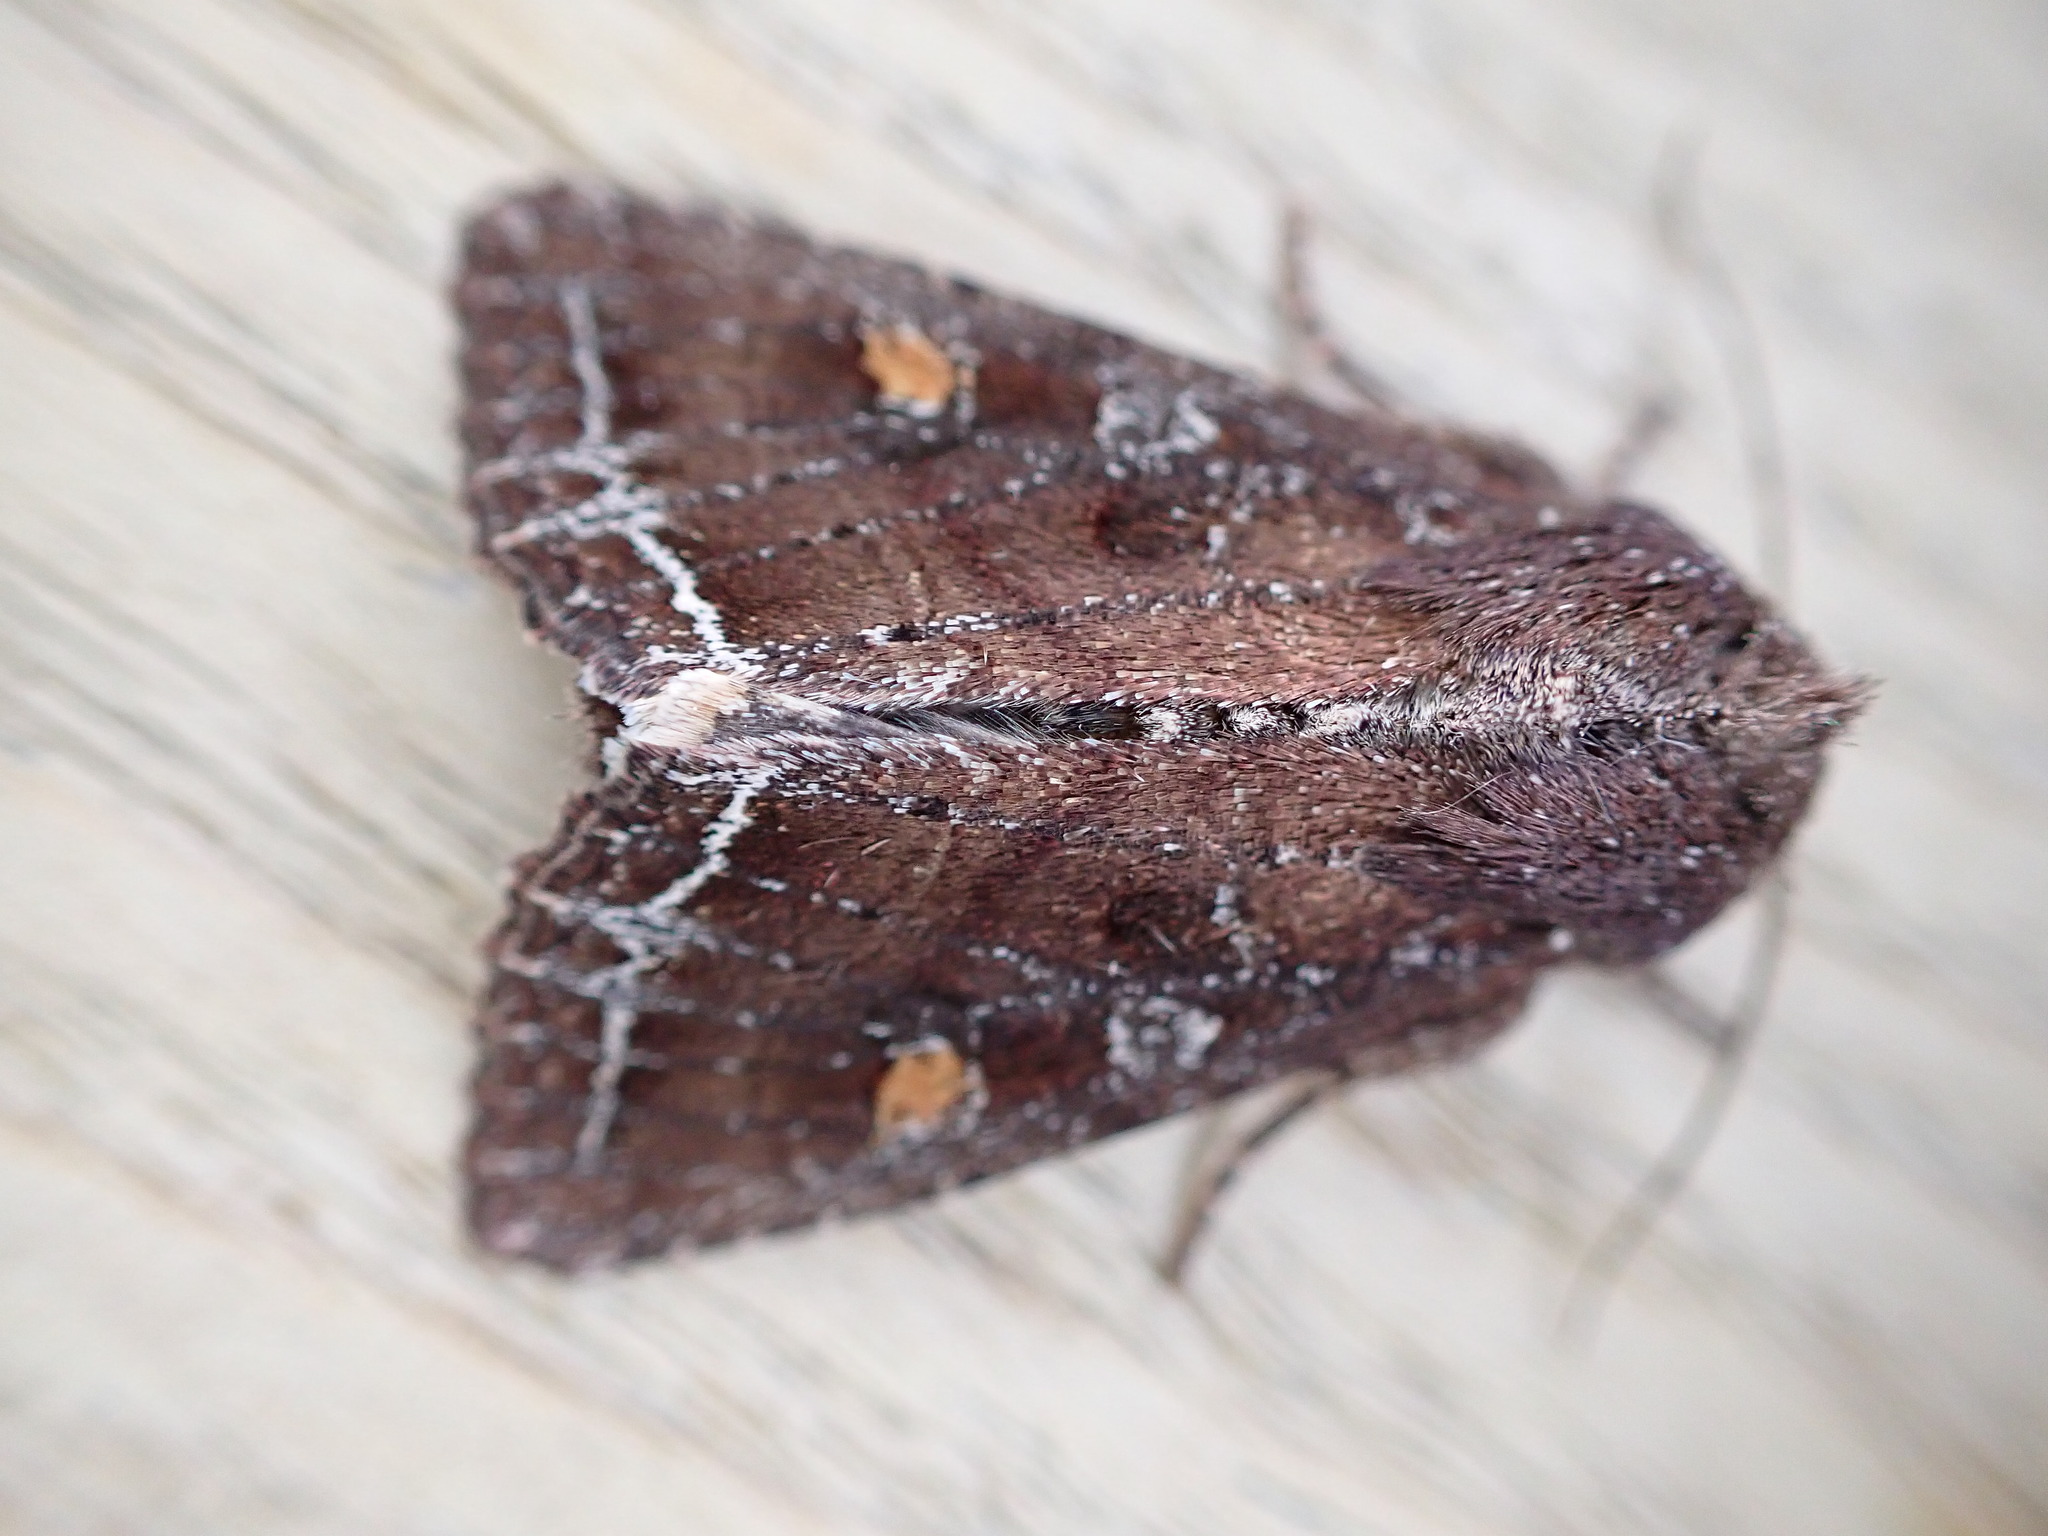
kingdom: Animalia
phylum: Arthropoda
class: Insecta
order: Lepidoptera
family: Noctuidae
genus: Lacanobia
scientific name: Lacanobia oleracea
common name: Bright-line brown-eye
